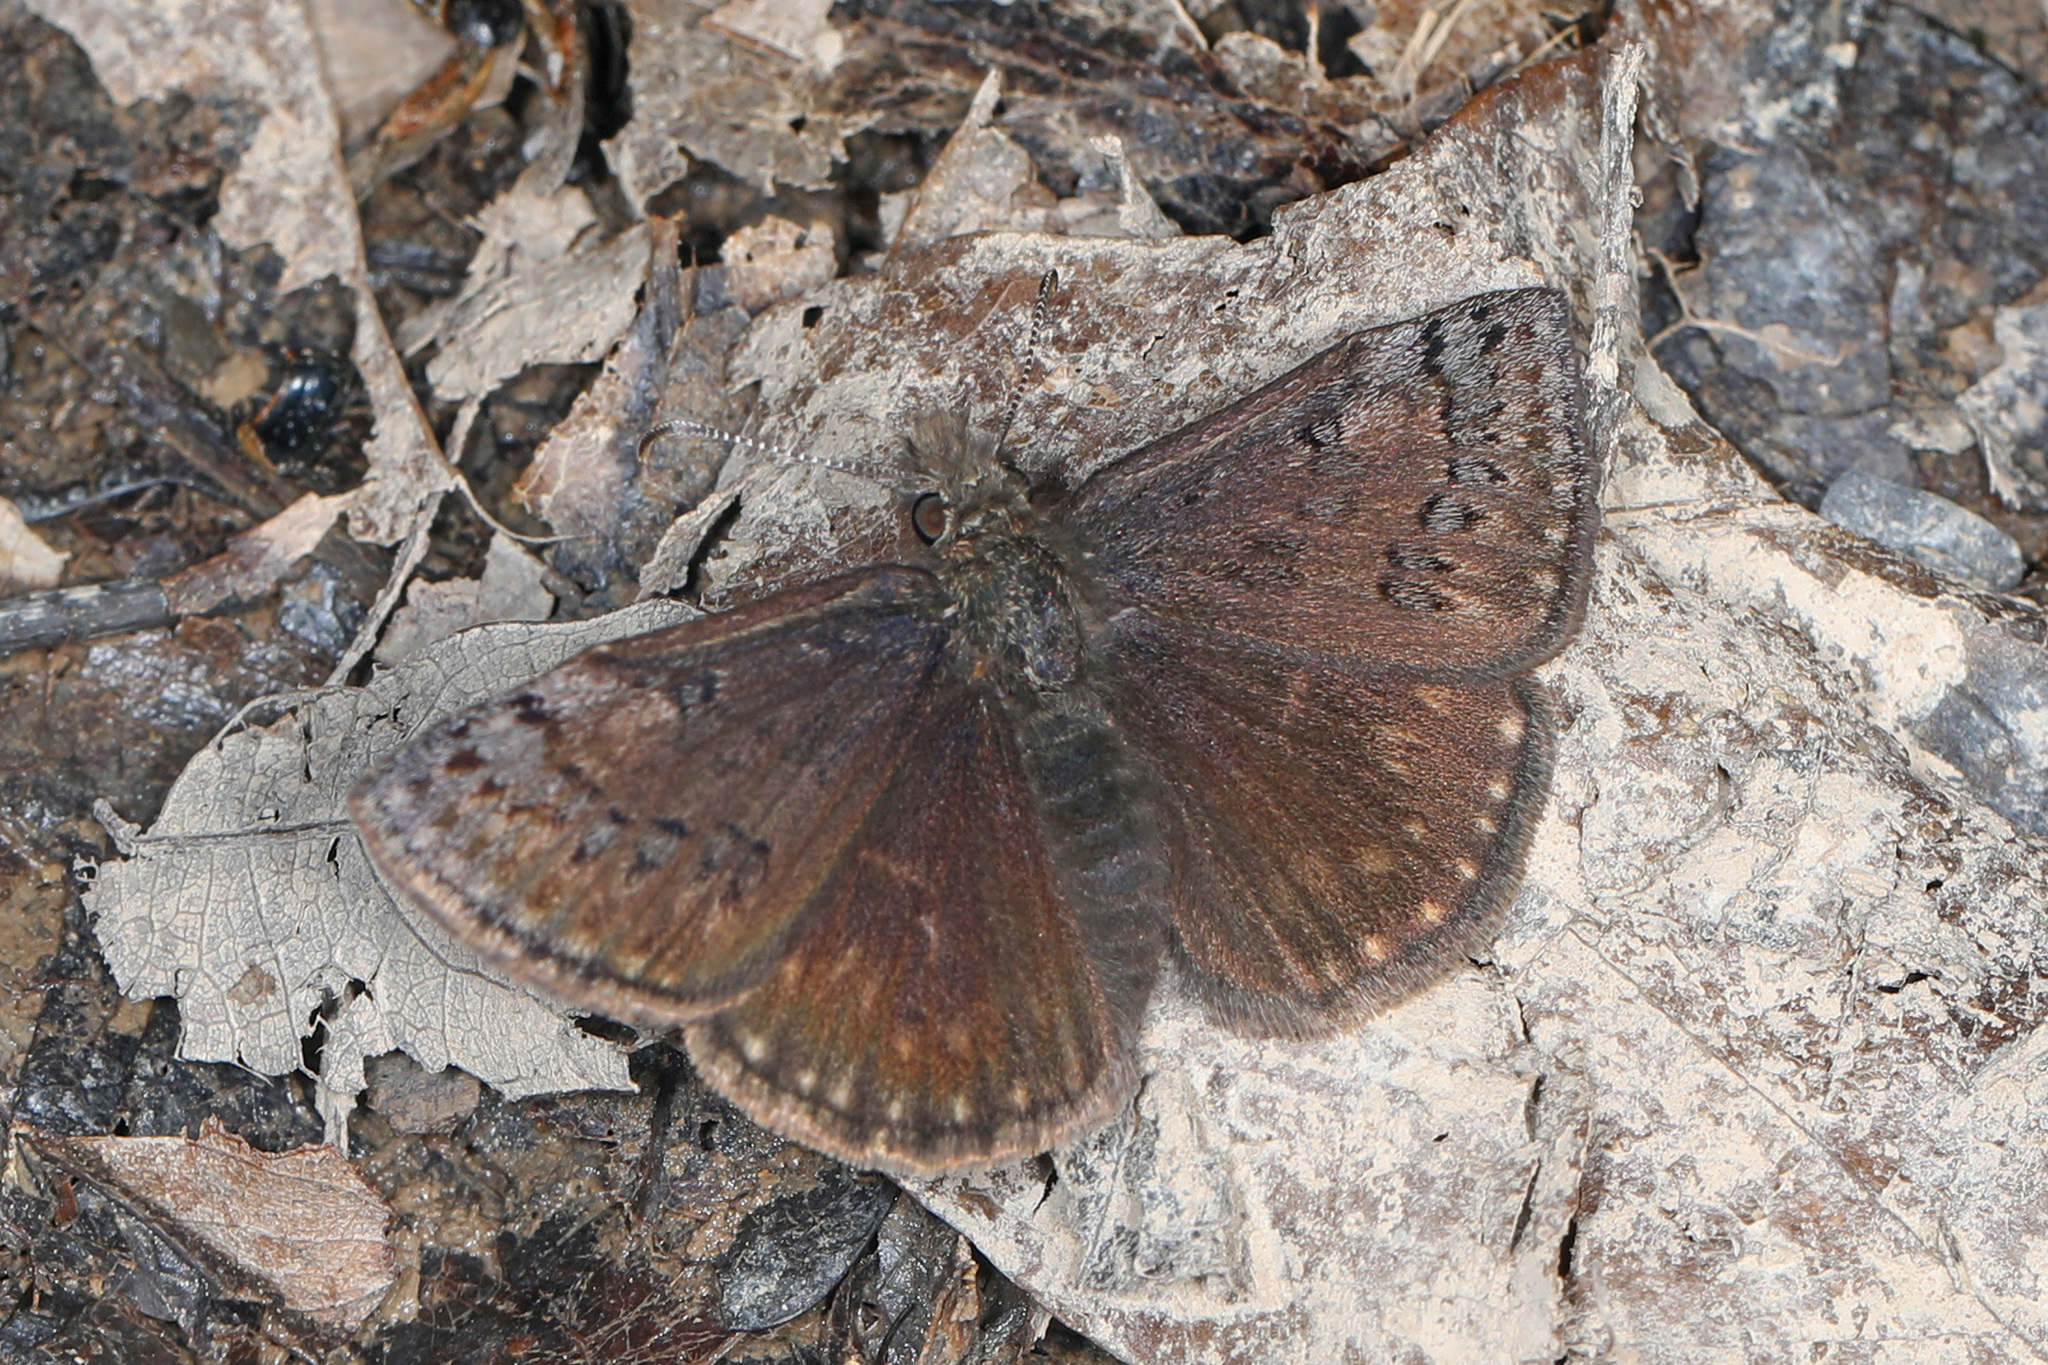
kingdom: Animalia
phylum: Arthropoda
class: Insecta
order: Lepidoptera
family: Hesperiidae
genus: Erynnis
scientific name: Erynnis brizo
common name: Sleepy duskywing
